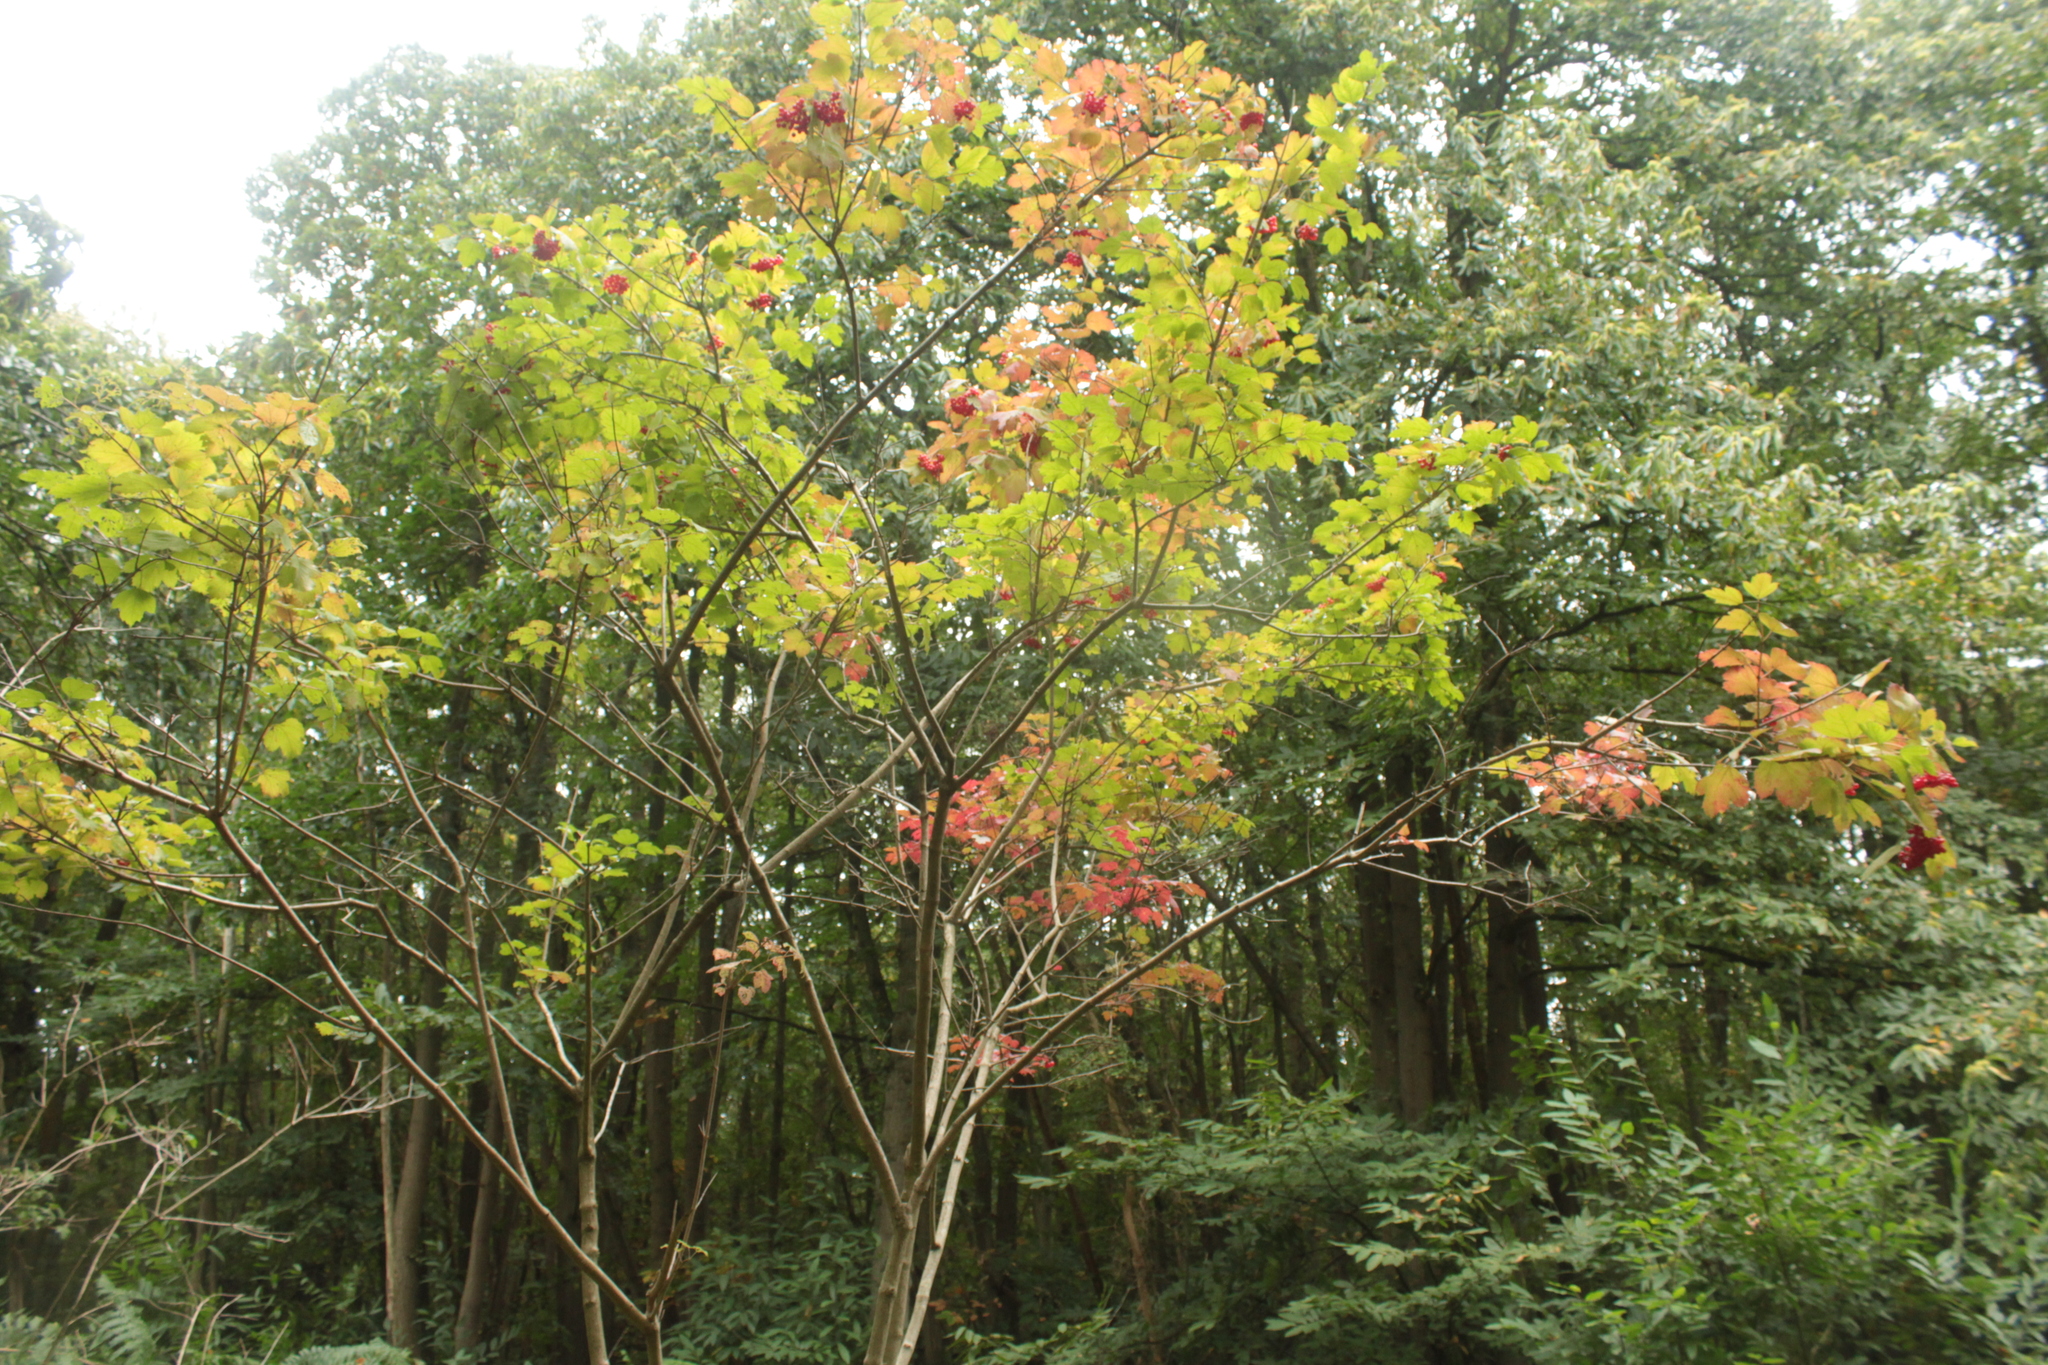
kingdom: Plantae
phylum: Tracheophyta
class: Magnoliopsida
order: Dipsacales
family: Viburnaceae
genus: Viburnum
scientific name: Viburnum opulus
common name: Guelder-rose
